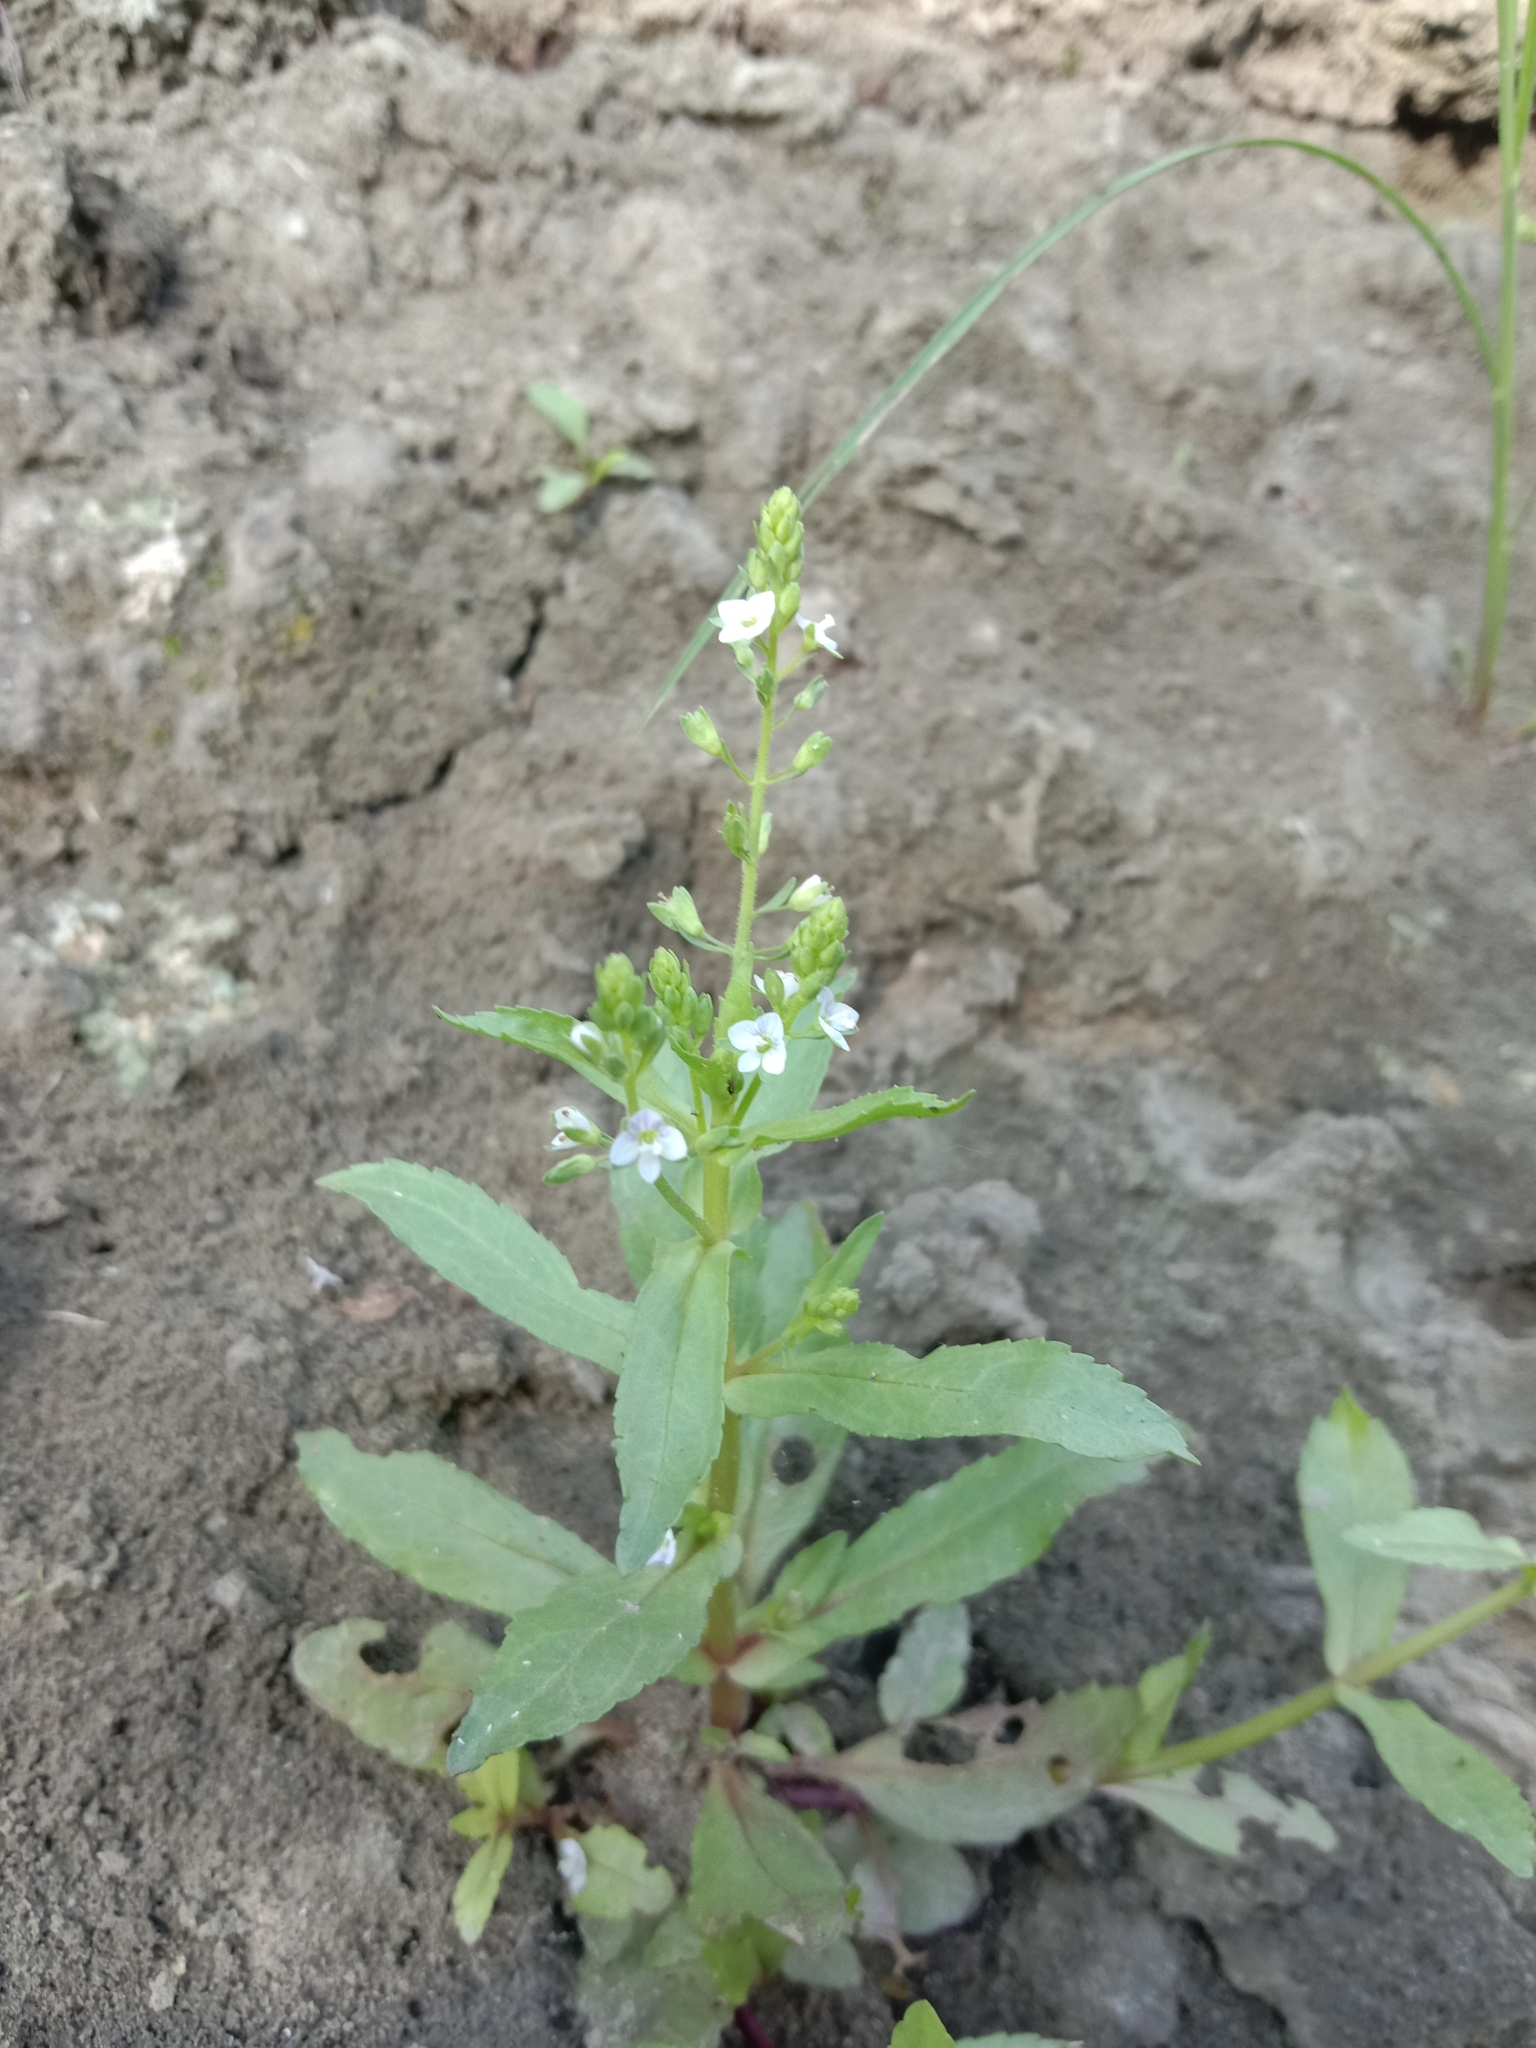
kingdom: Plantae
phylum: Tracheophyta
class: Magnoliopsida
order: Lamiales
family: Plantaginaceae
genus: Veronica
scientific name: Veronica undulata
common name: Undulate speedwell
